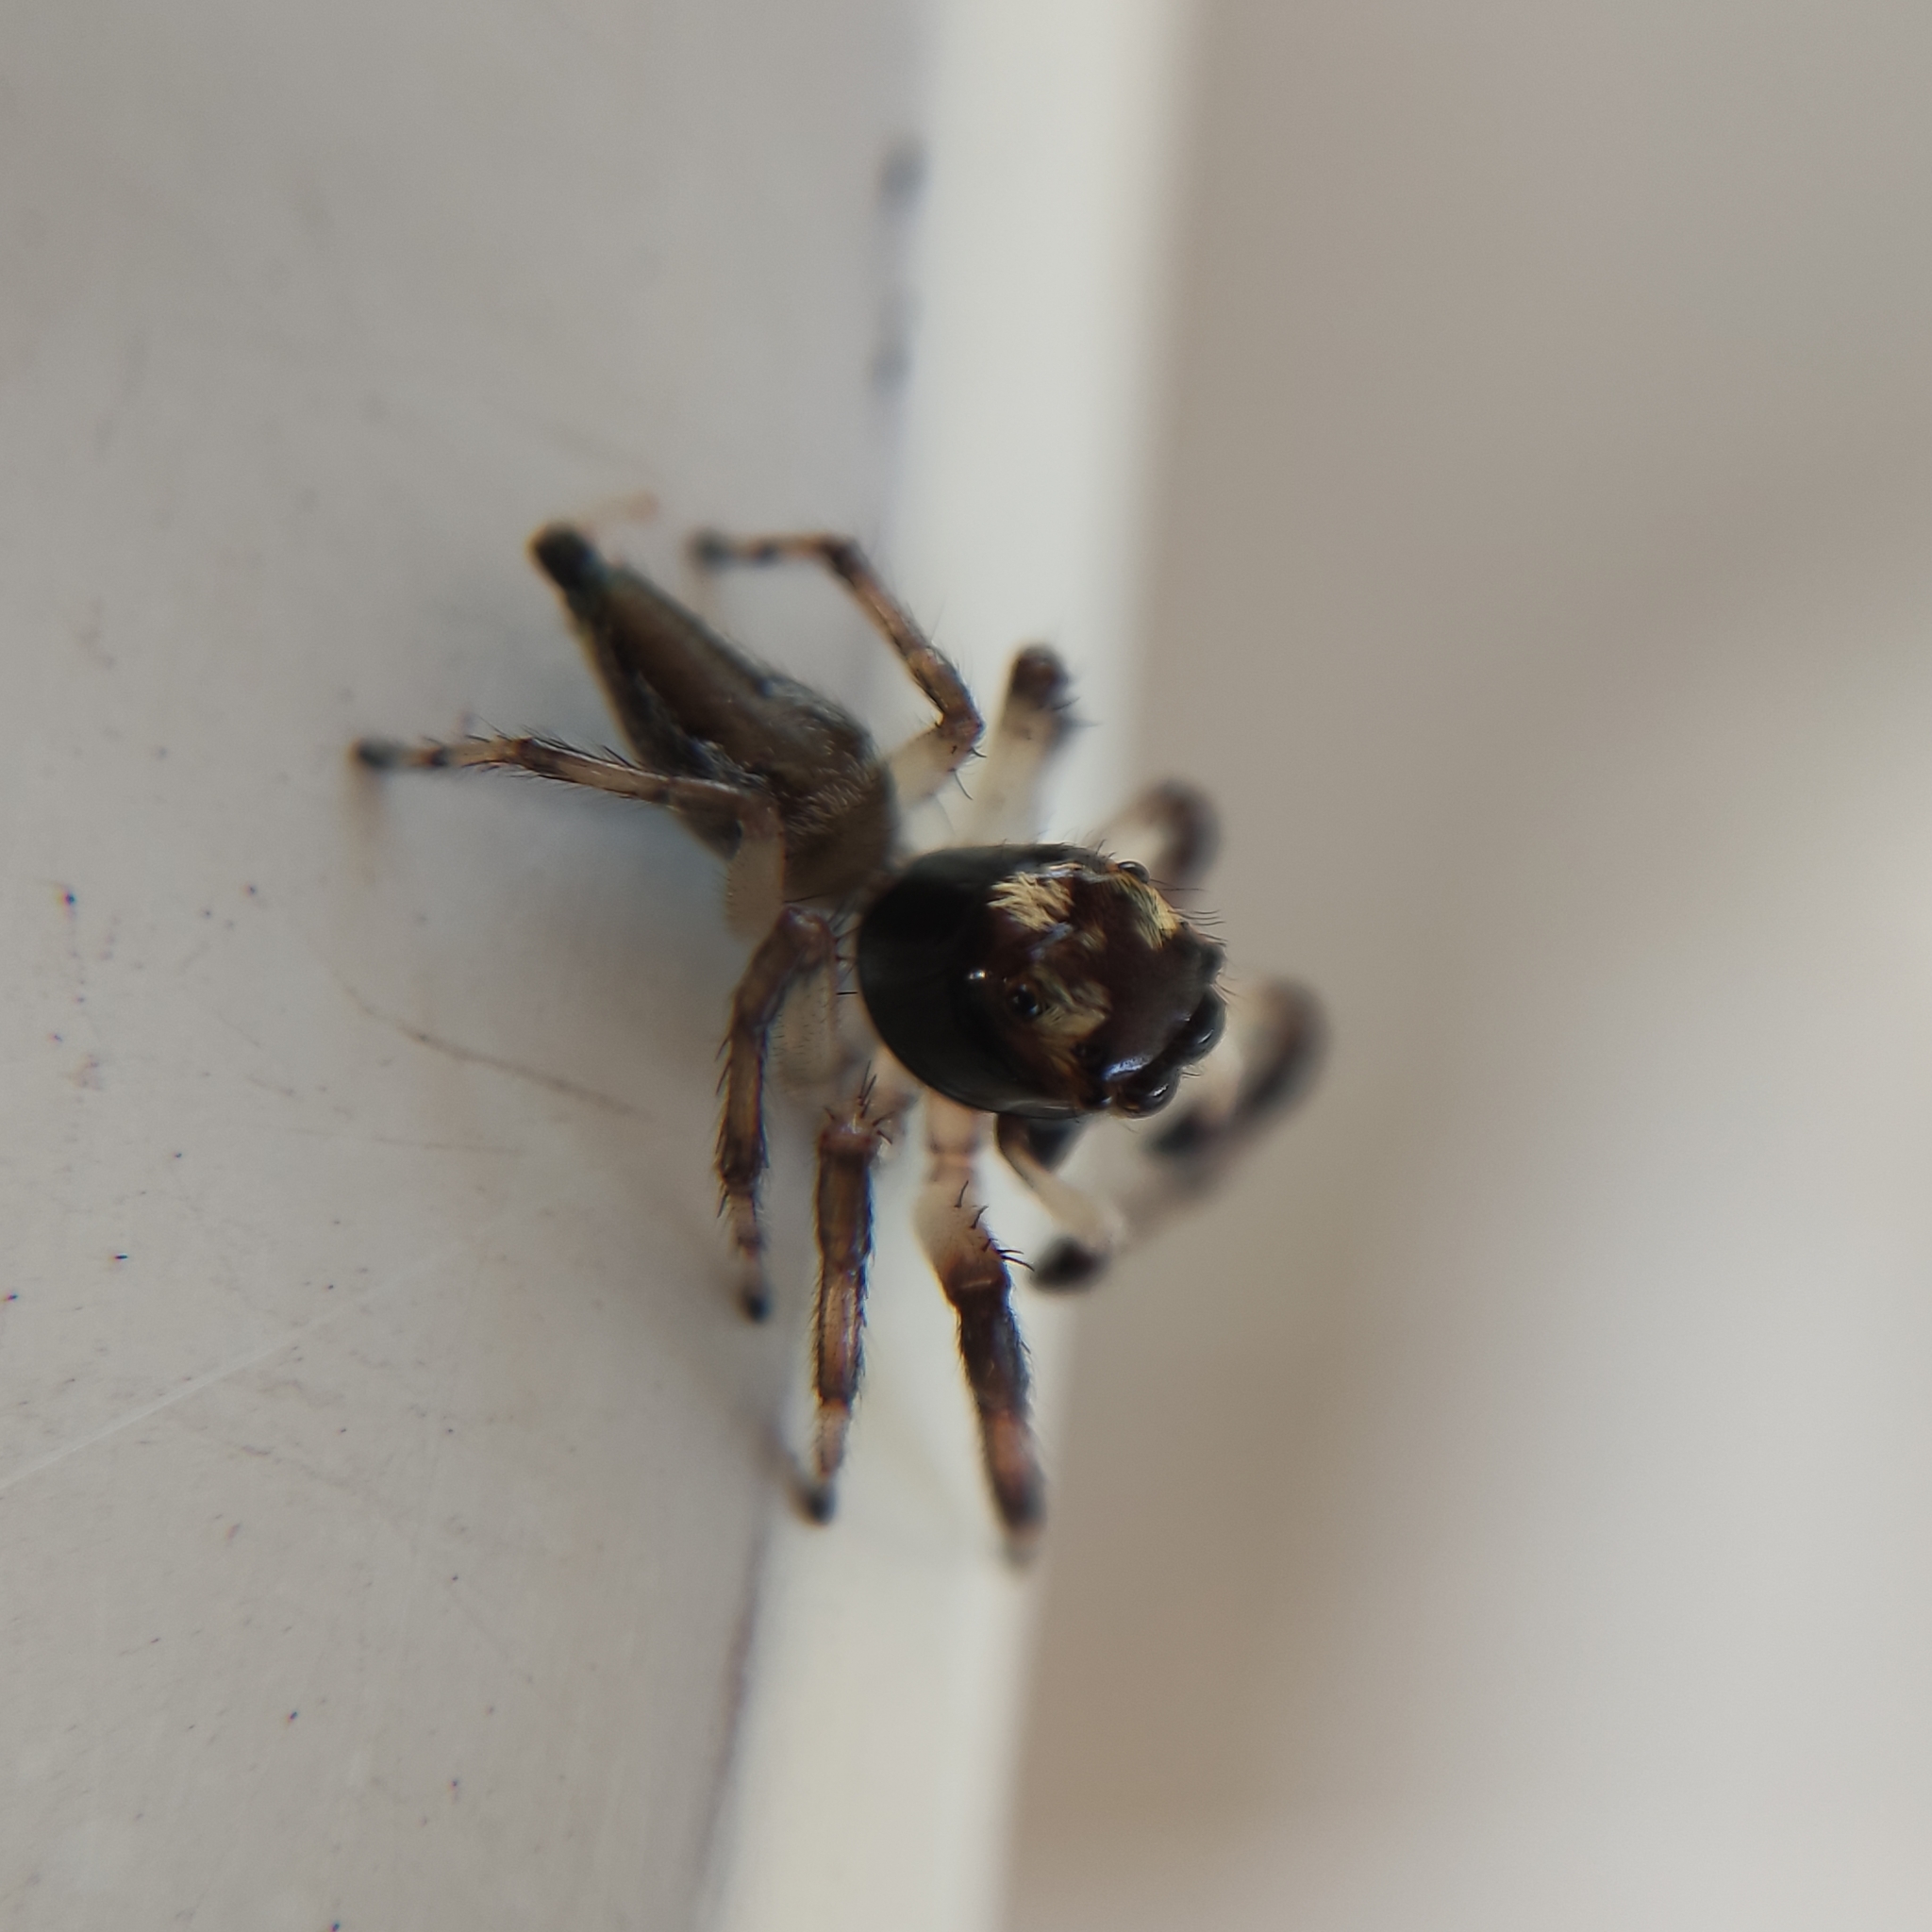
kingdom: Animalia
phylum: Arthropoda
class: Arachnida
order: Araneae
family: Salticidae
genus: Vinnius
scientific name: Vinnius uncatus
